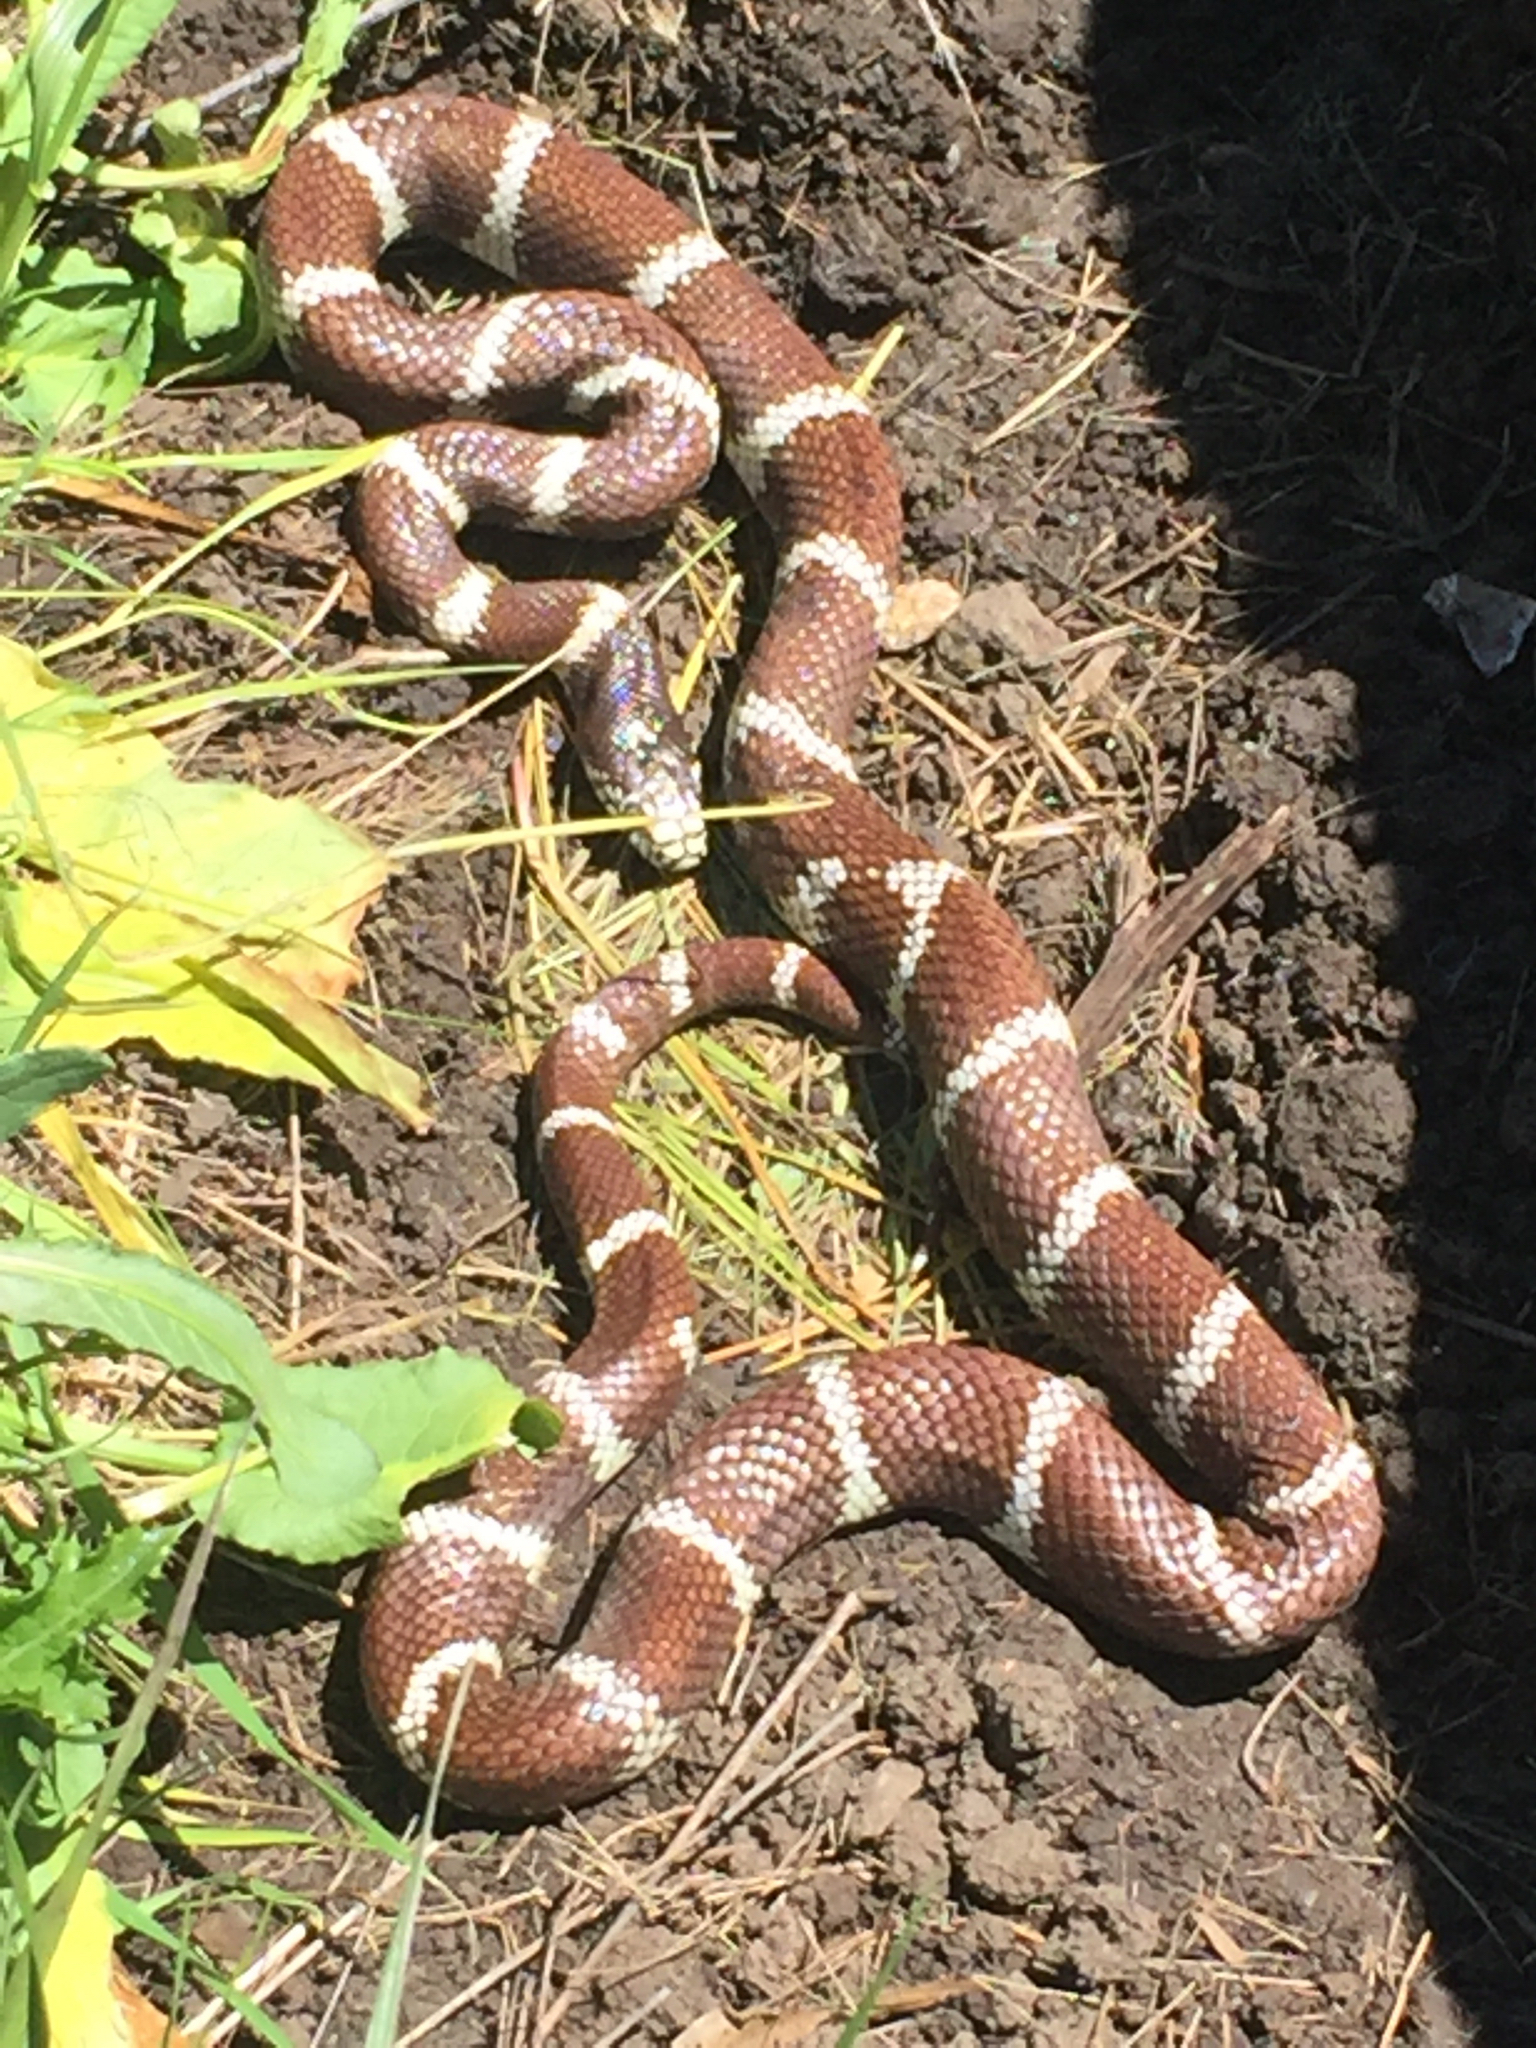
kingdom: Animalia
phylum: Chordata
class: Squamata
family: Colubridae
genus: Lampropeltis
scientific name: Lampropeltis californiae
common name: California kingsnake
